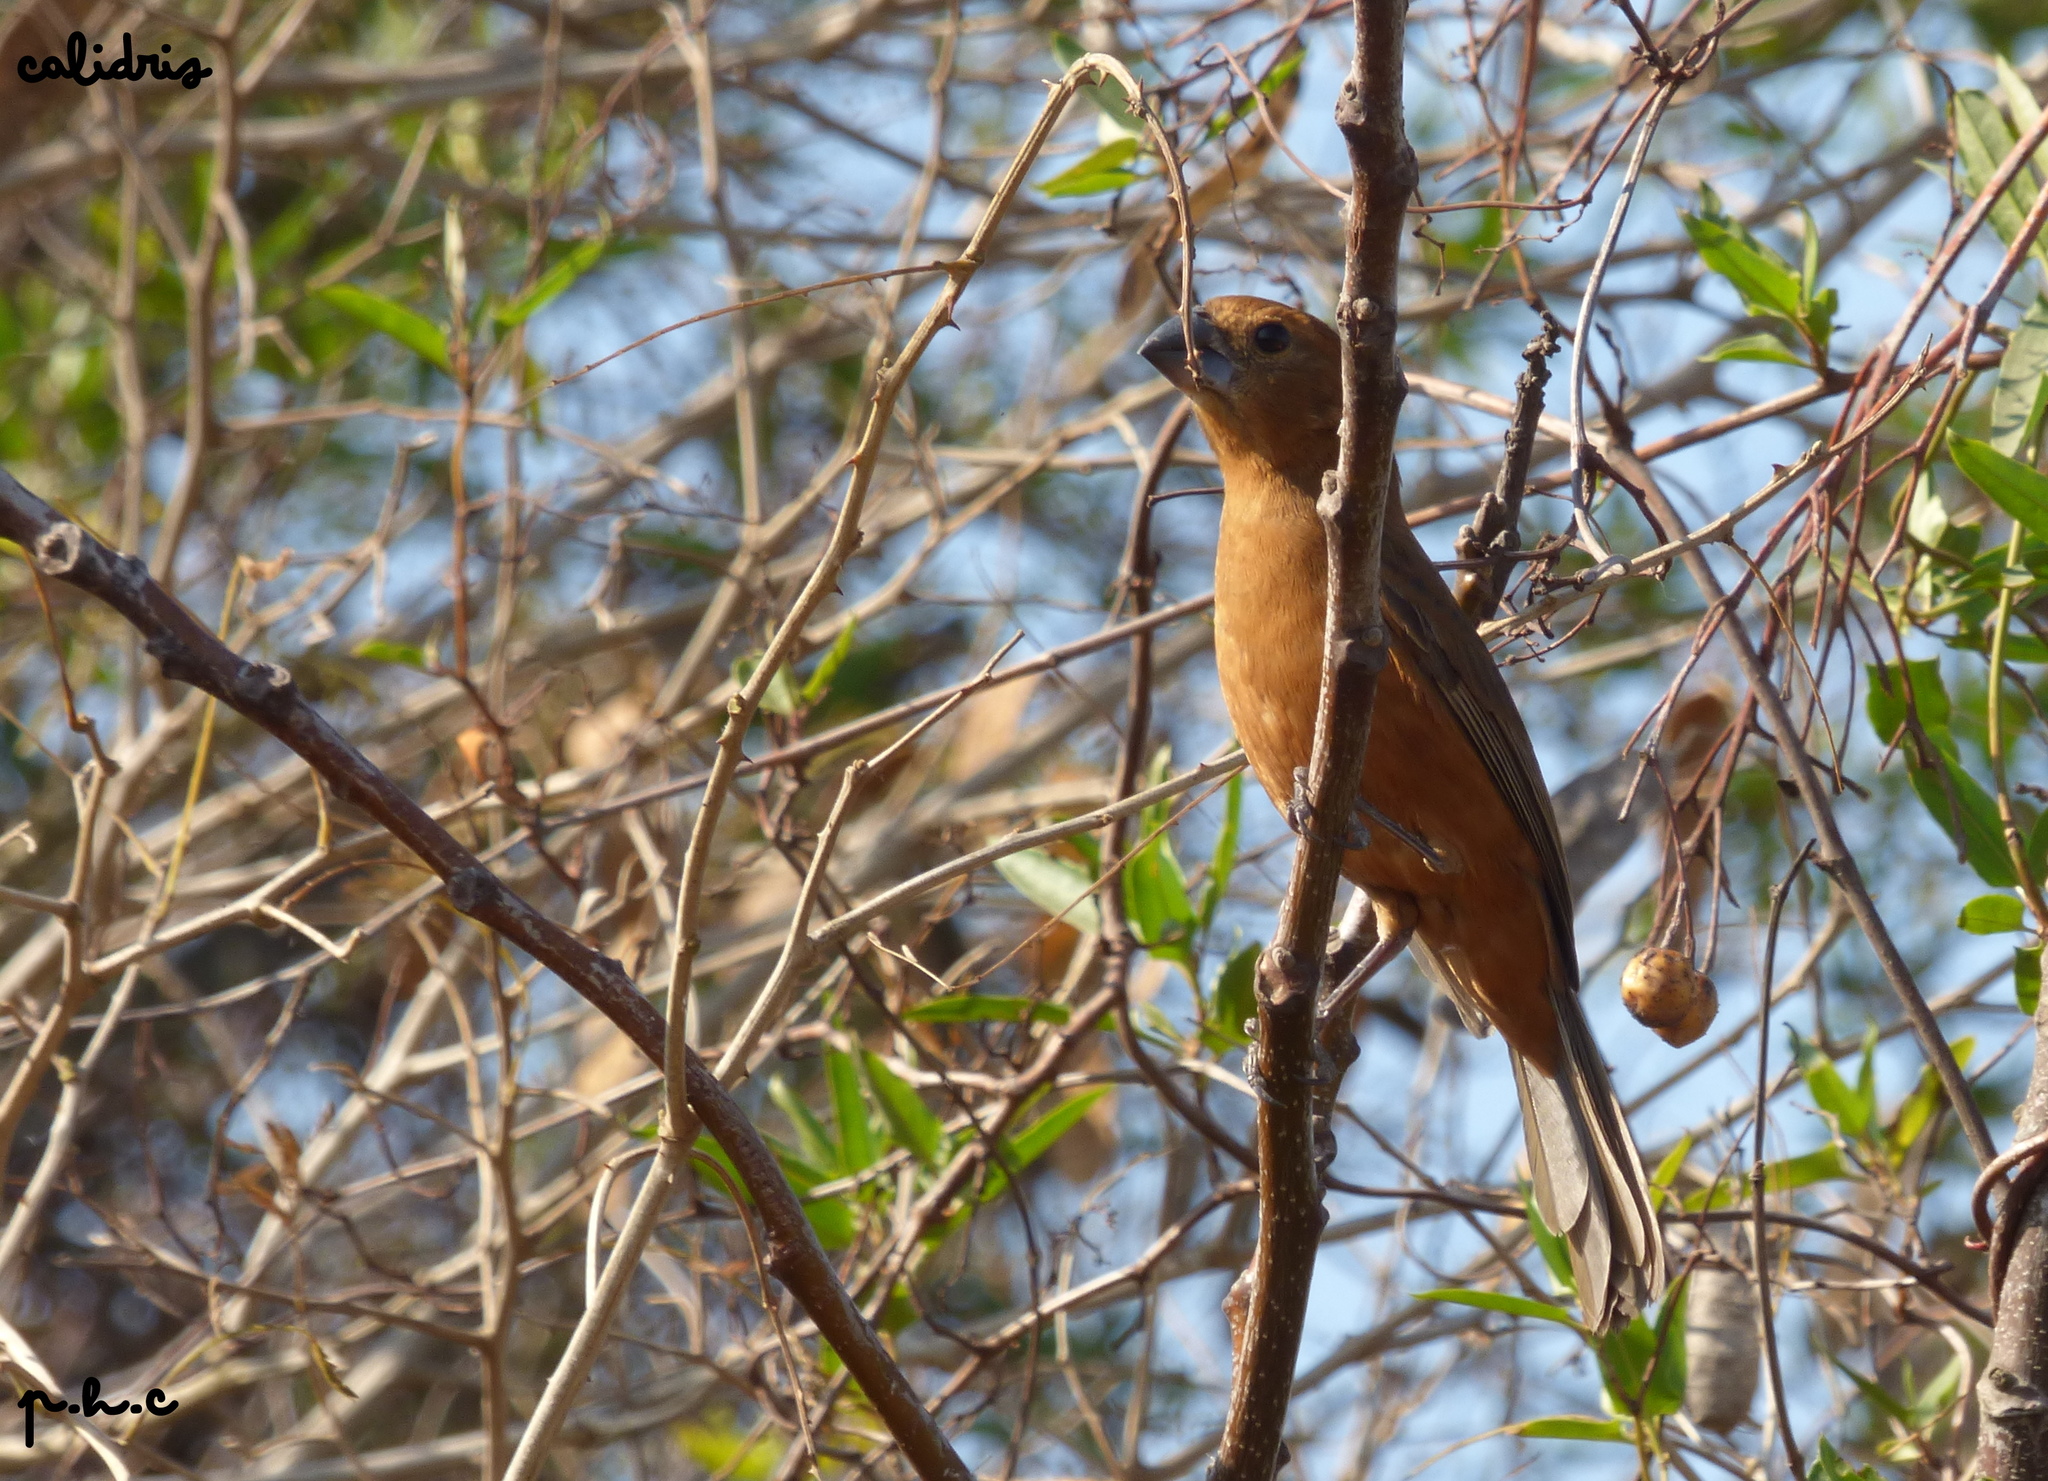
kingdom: Animalia
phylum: Chordata
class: Aves
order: Passeriformes
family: Cardinalidae
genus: Cyanoloxia
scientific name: Cyanoloxia brissonii
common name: Ultramarine grosbeak
